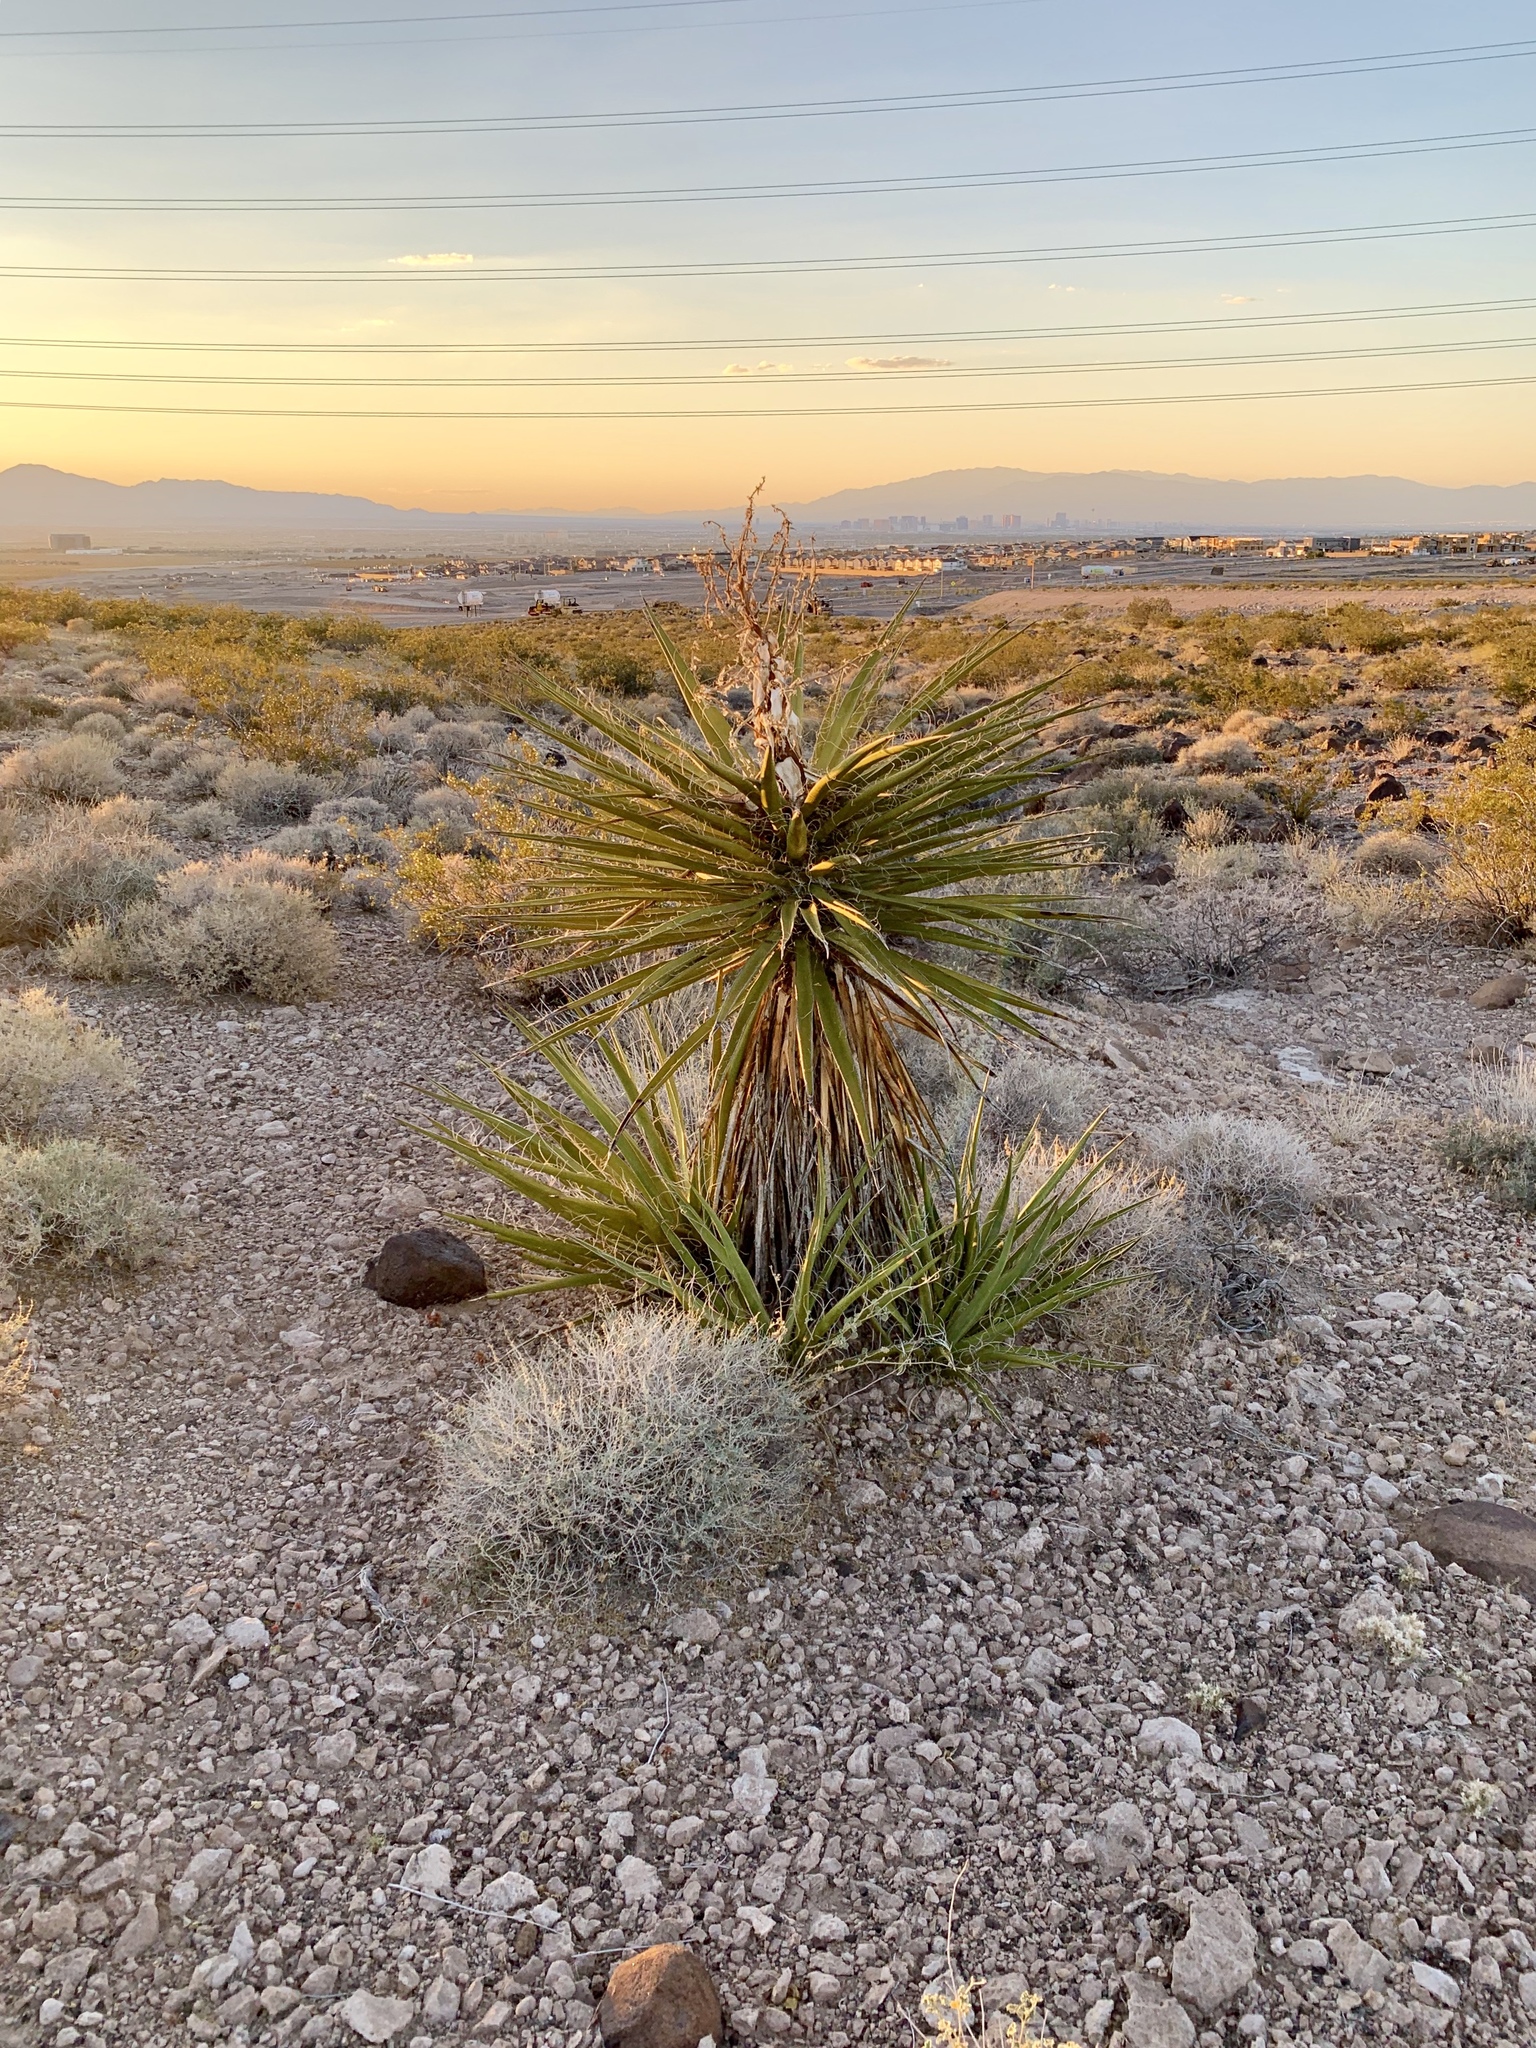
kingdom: Plantae
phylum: Tracheophyta
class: Liliopsida
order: Asparagales
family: Asparagaceae
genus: Yucca
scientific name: Yucca schidigera
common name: Mojave yucca
